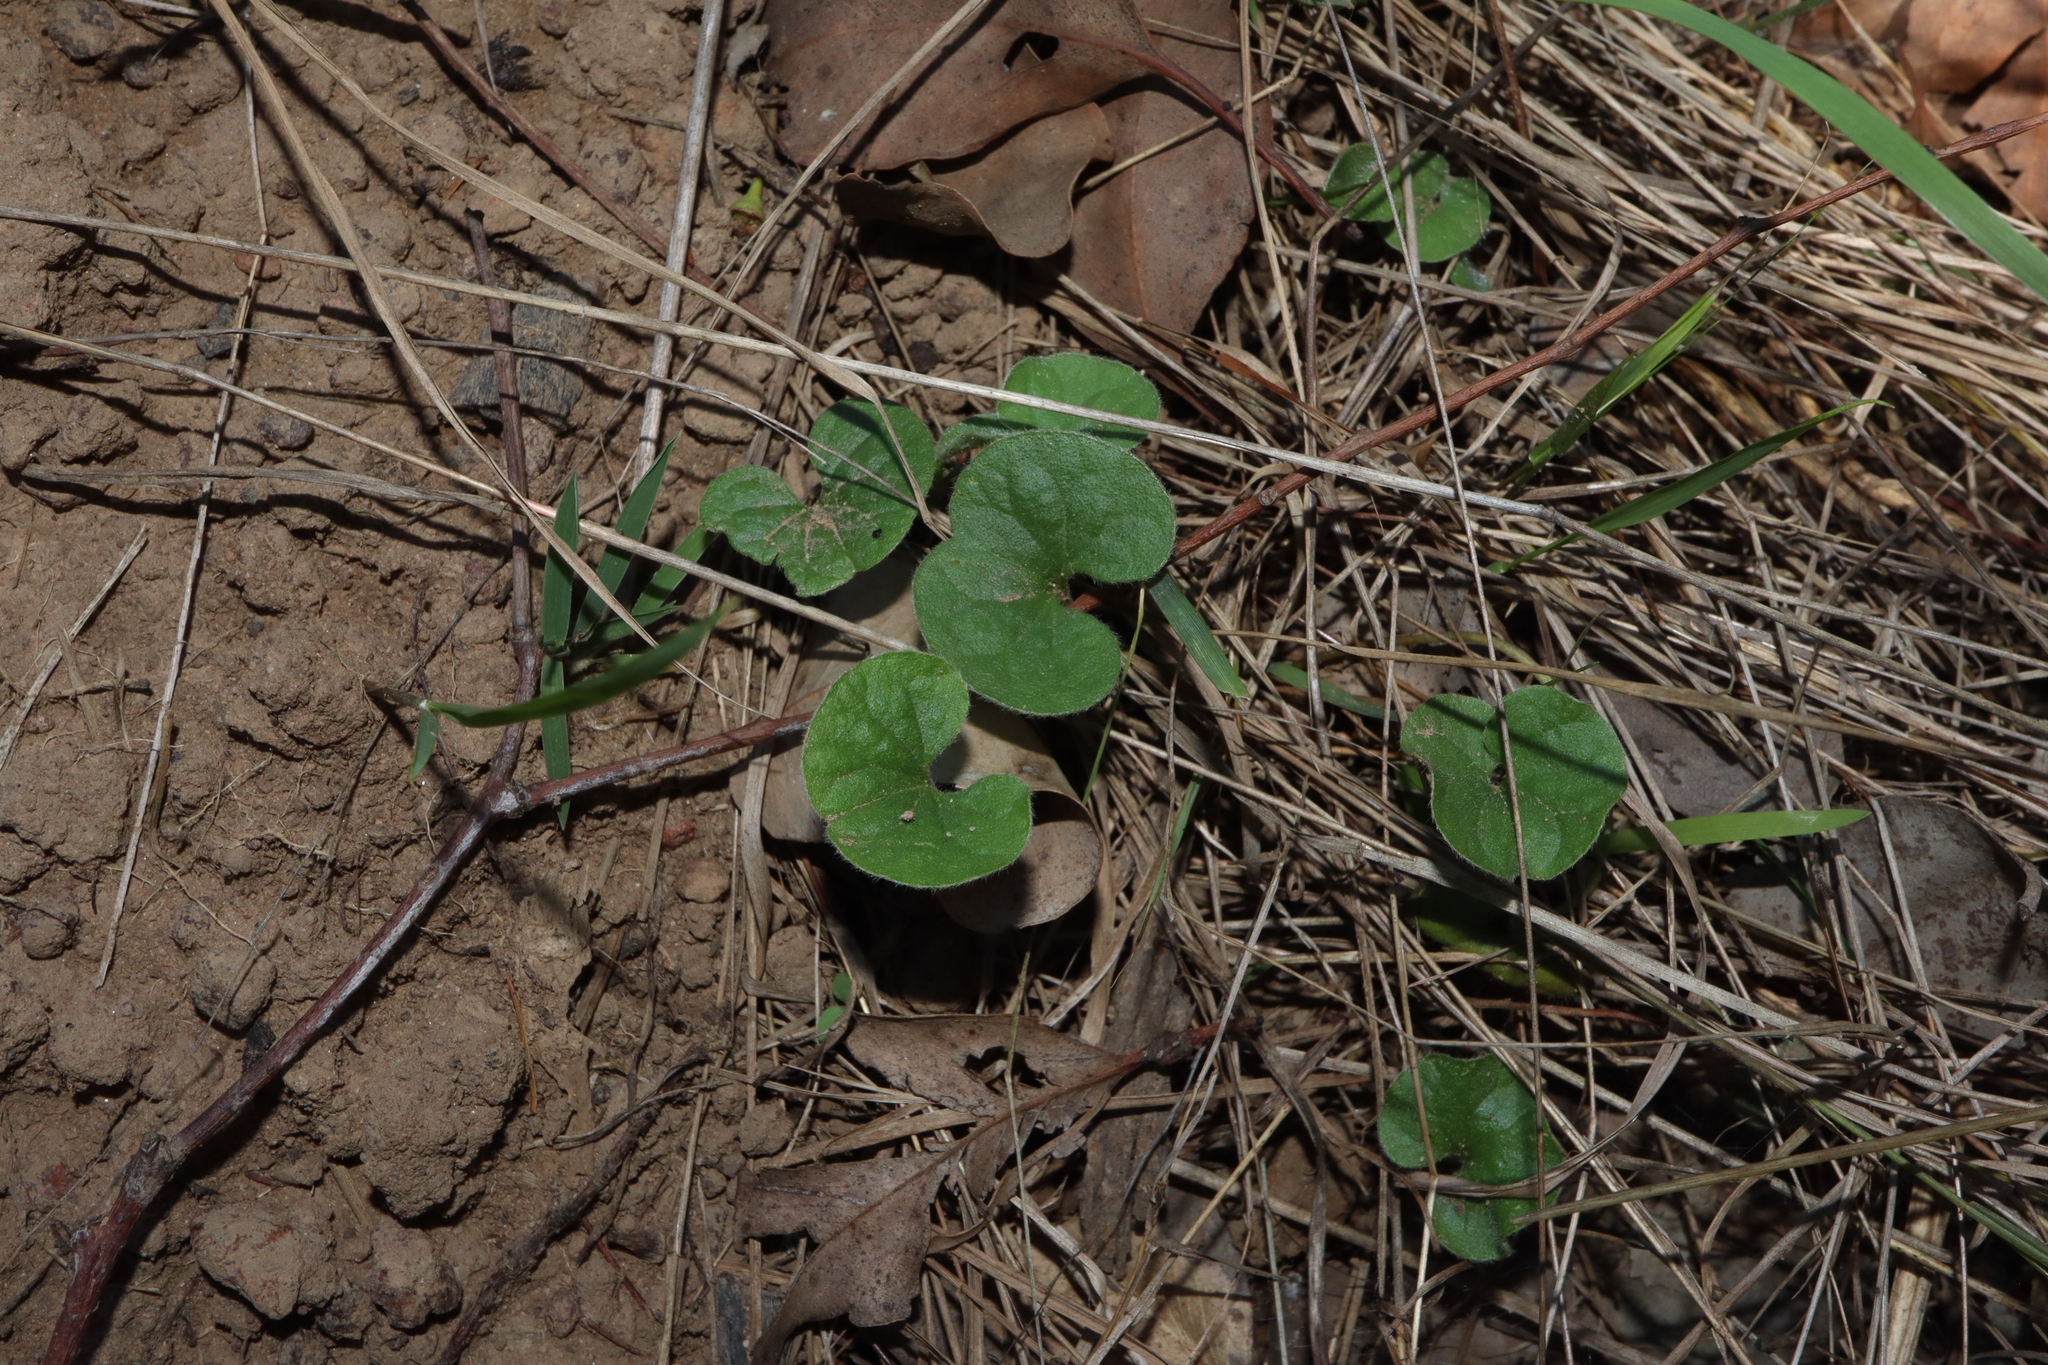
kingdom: Plantae
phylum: Tracheophyta
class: Magnoliopsida
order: Solanales
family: Convolvulaceae
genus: Dichondra
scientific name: Dichondra repens
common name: Kidneyweed
